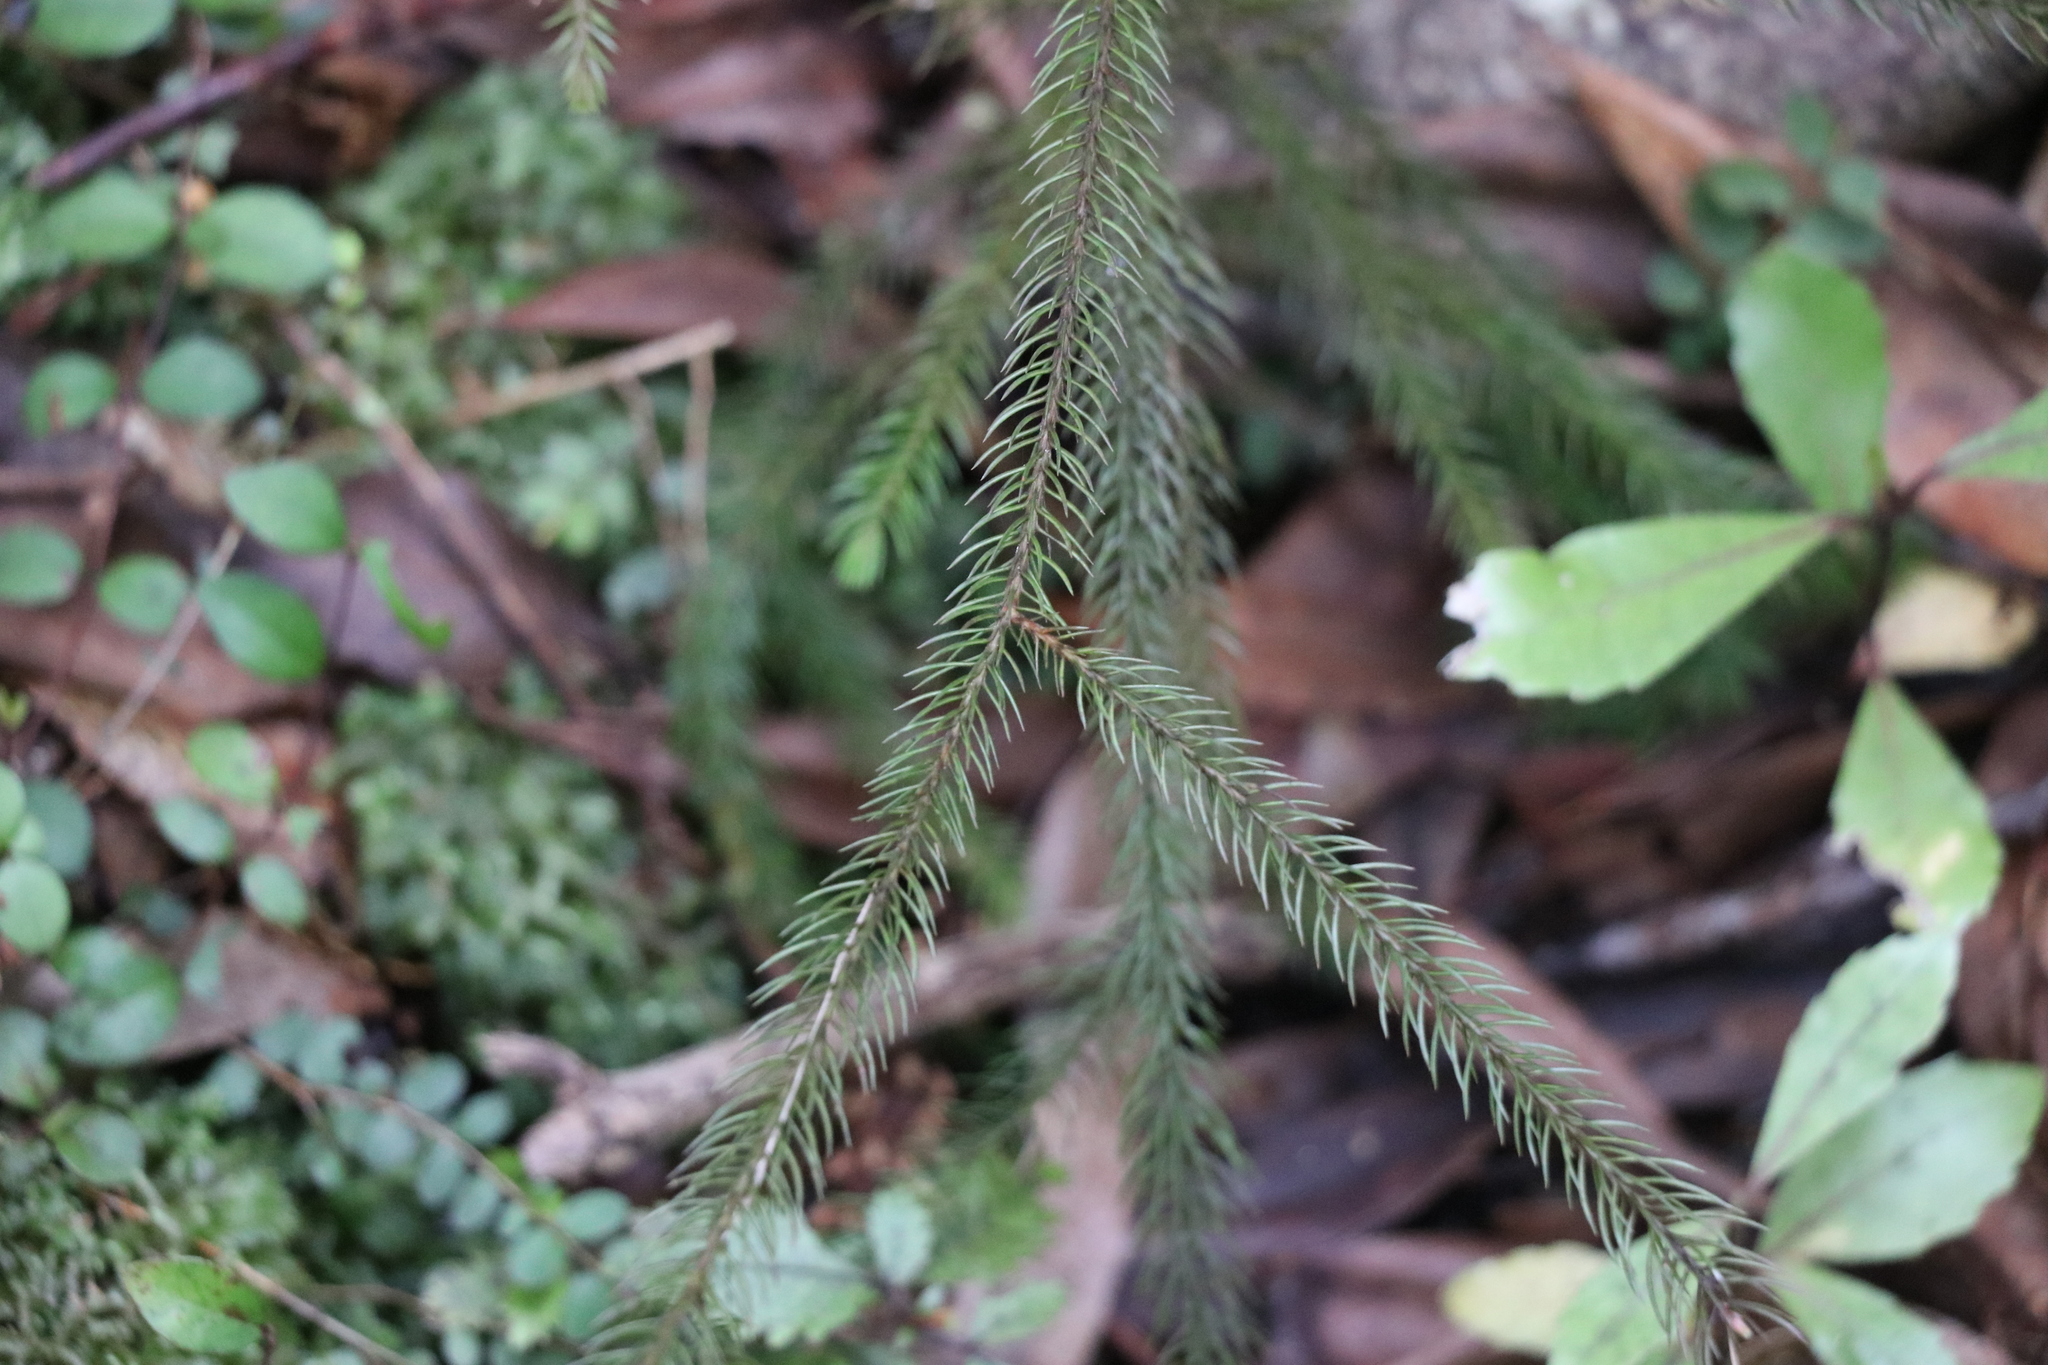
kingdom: Plantae
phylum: Tracheophyta
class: Pinopsida
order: Pinales
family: Podocarpaceae
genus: Dacrydium
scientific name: Dacrydium cupressinum
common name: Red pine
